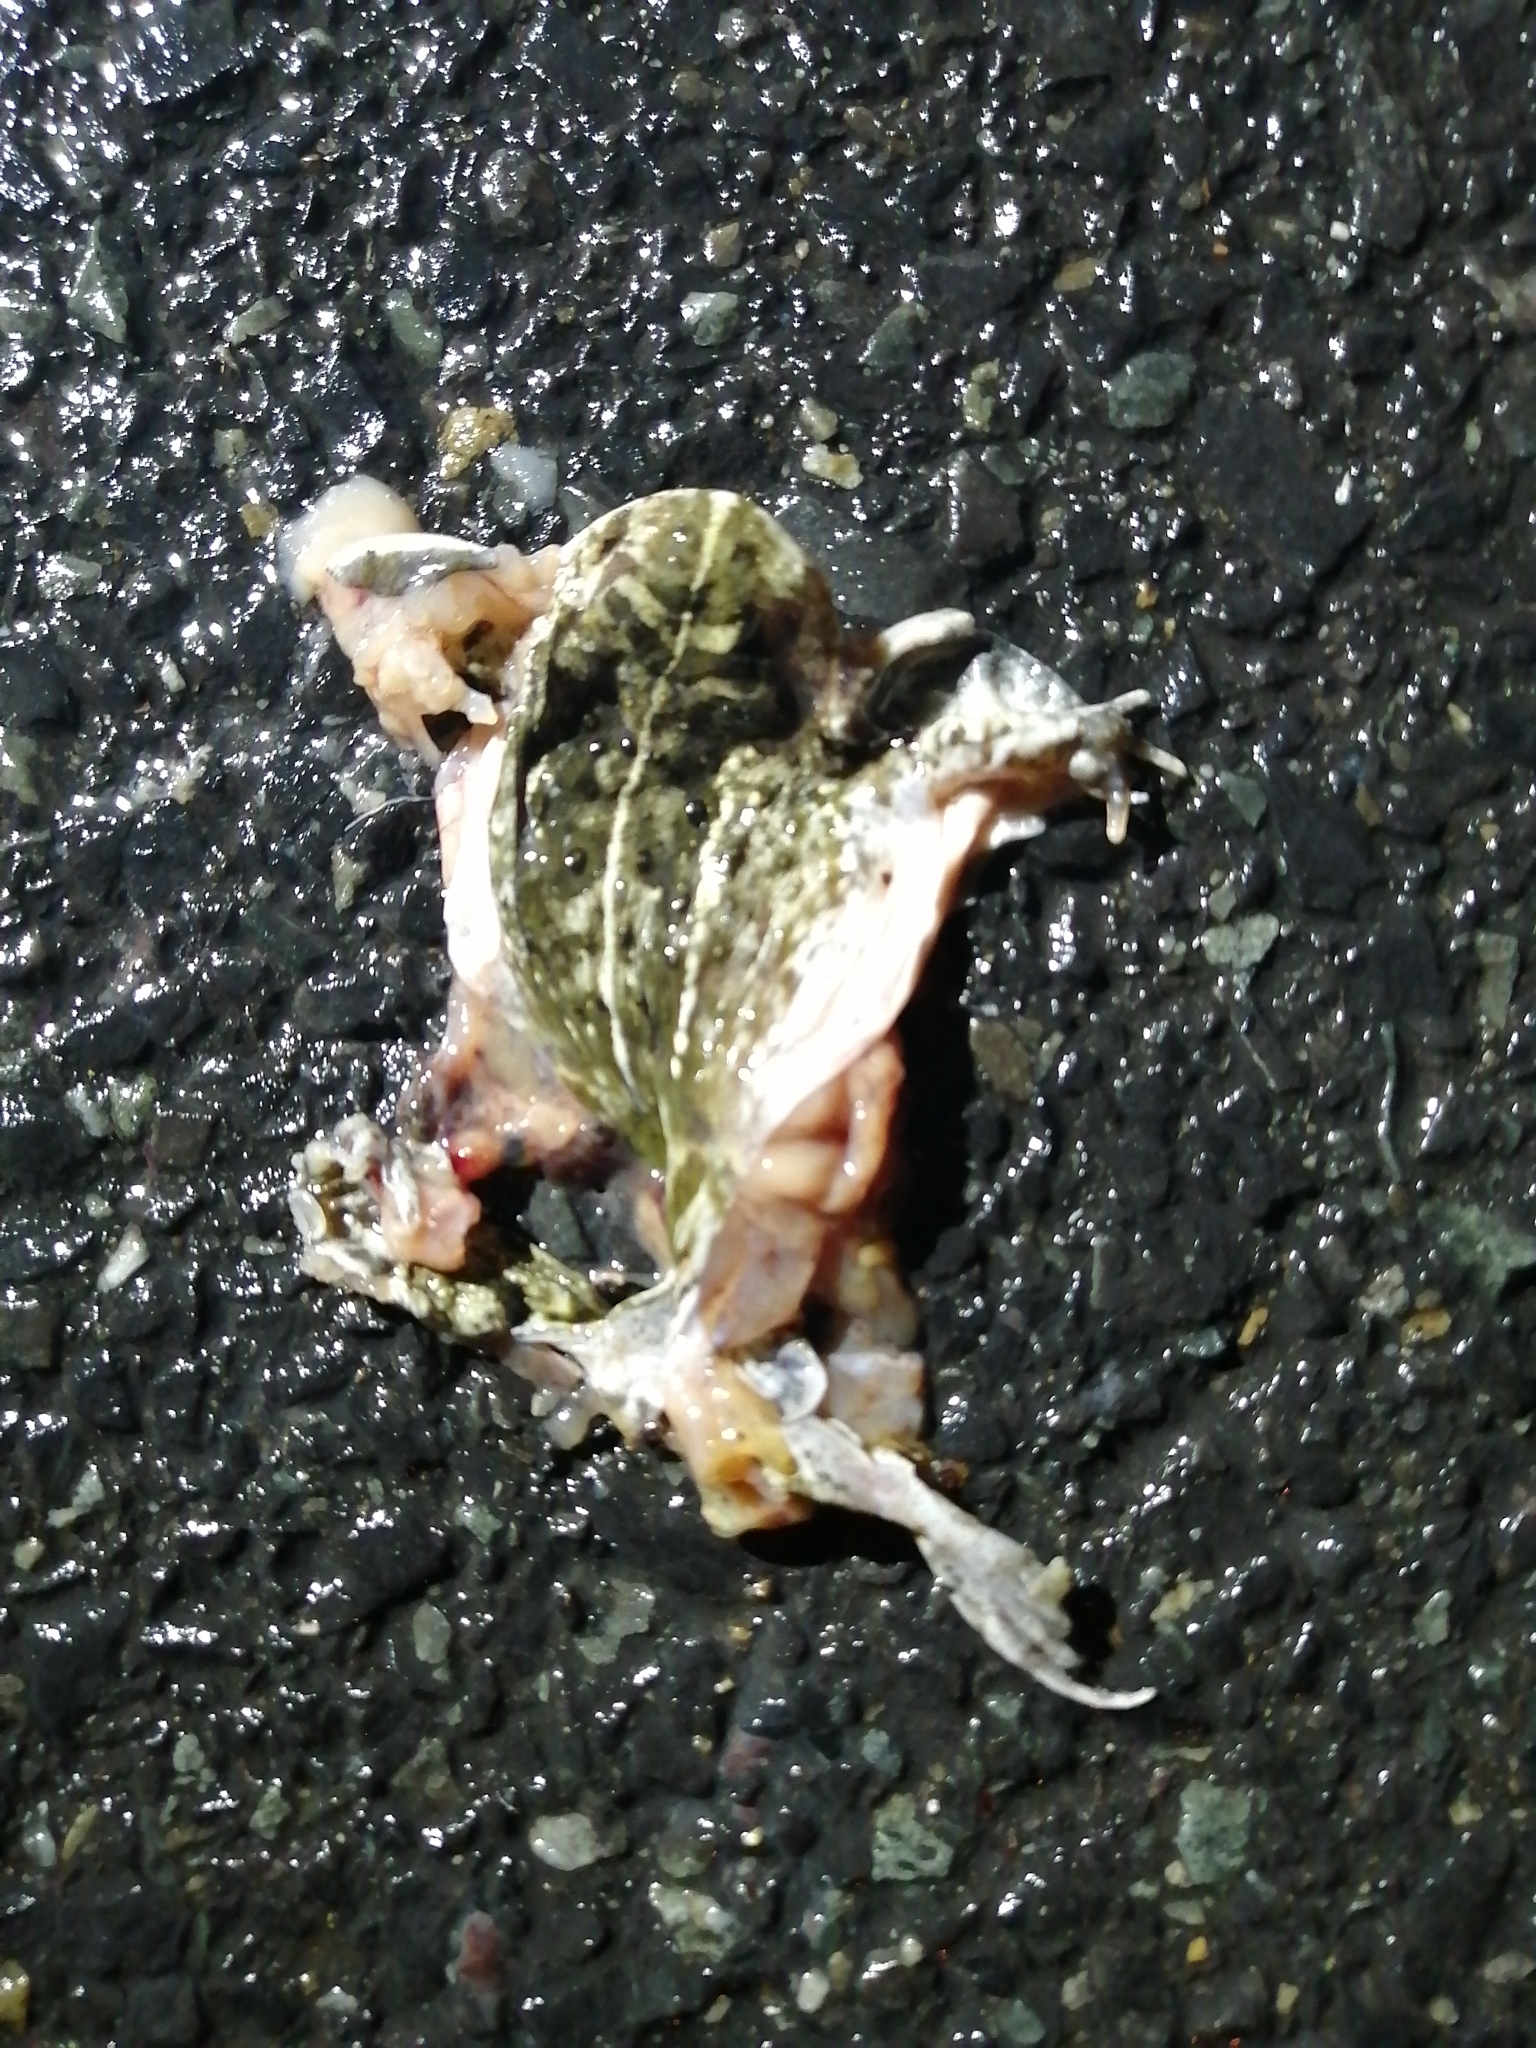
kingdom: Animalia
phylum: Chordata
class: Amphibia
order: Anura
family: Pyxicephalidae
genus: Tomopterna
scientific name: Tomopterna delalandii
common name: Delalande's burrowing bullfrog
